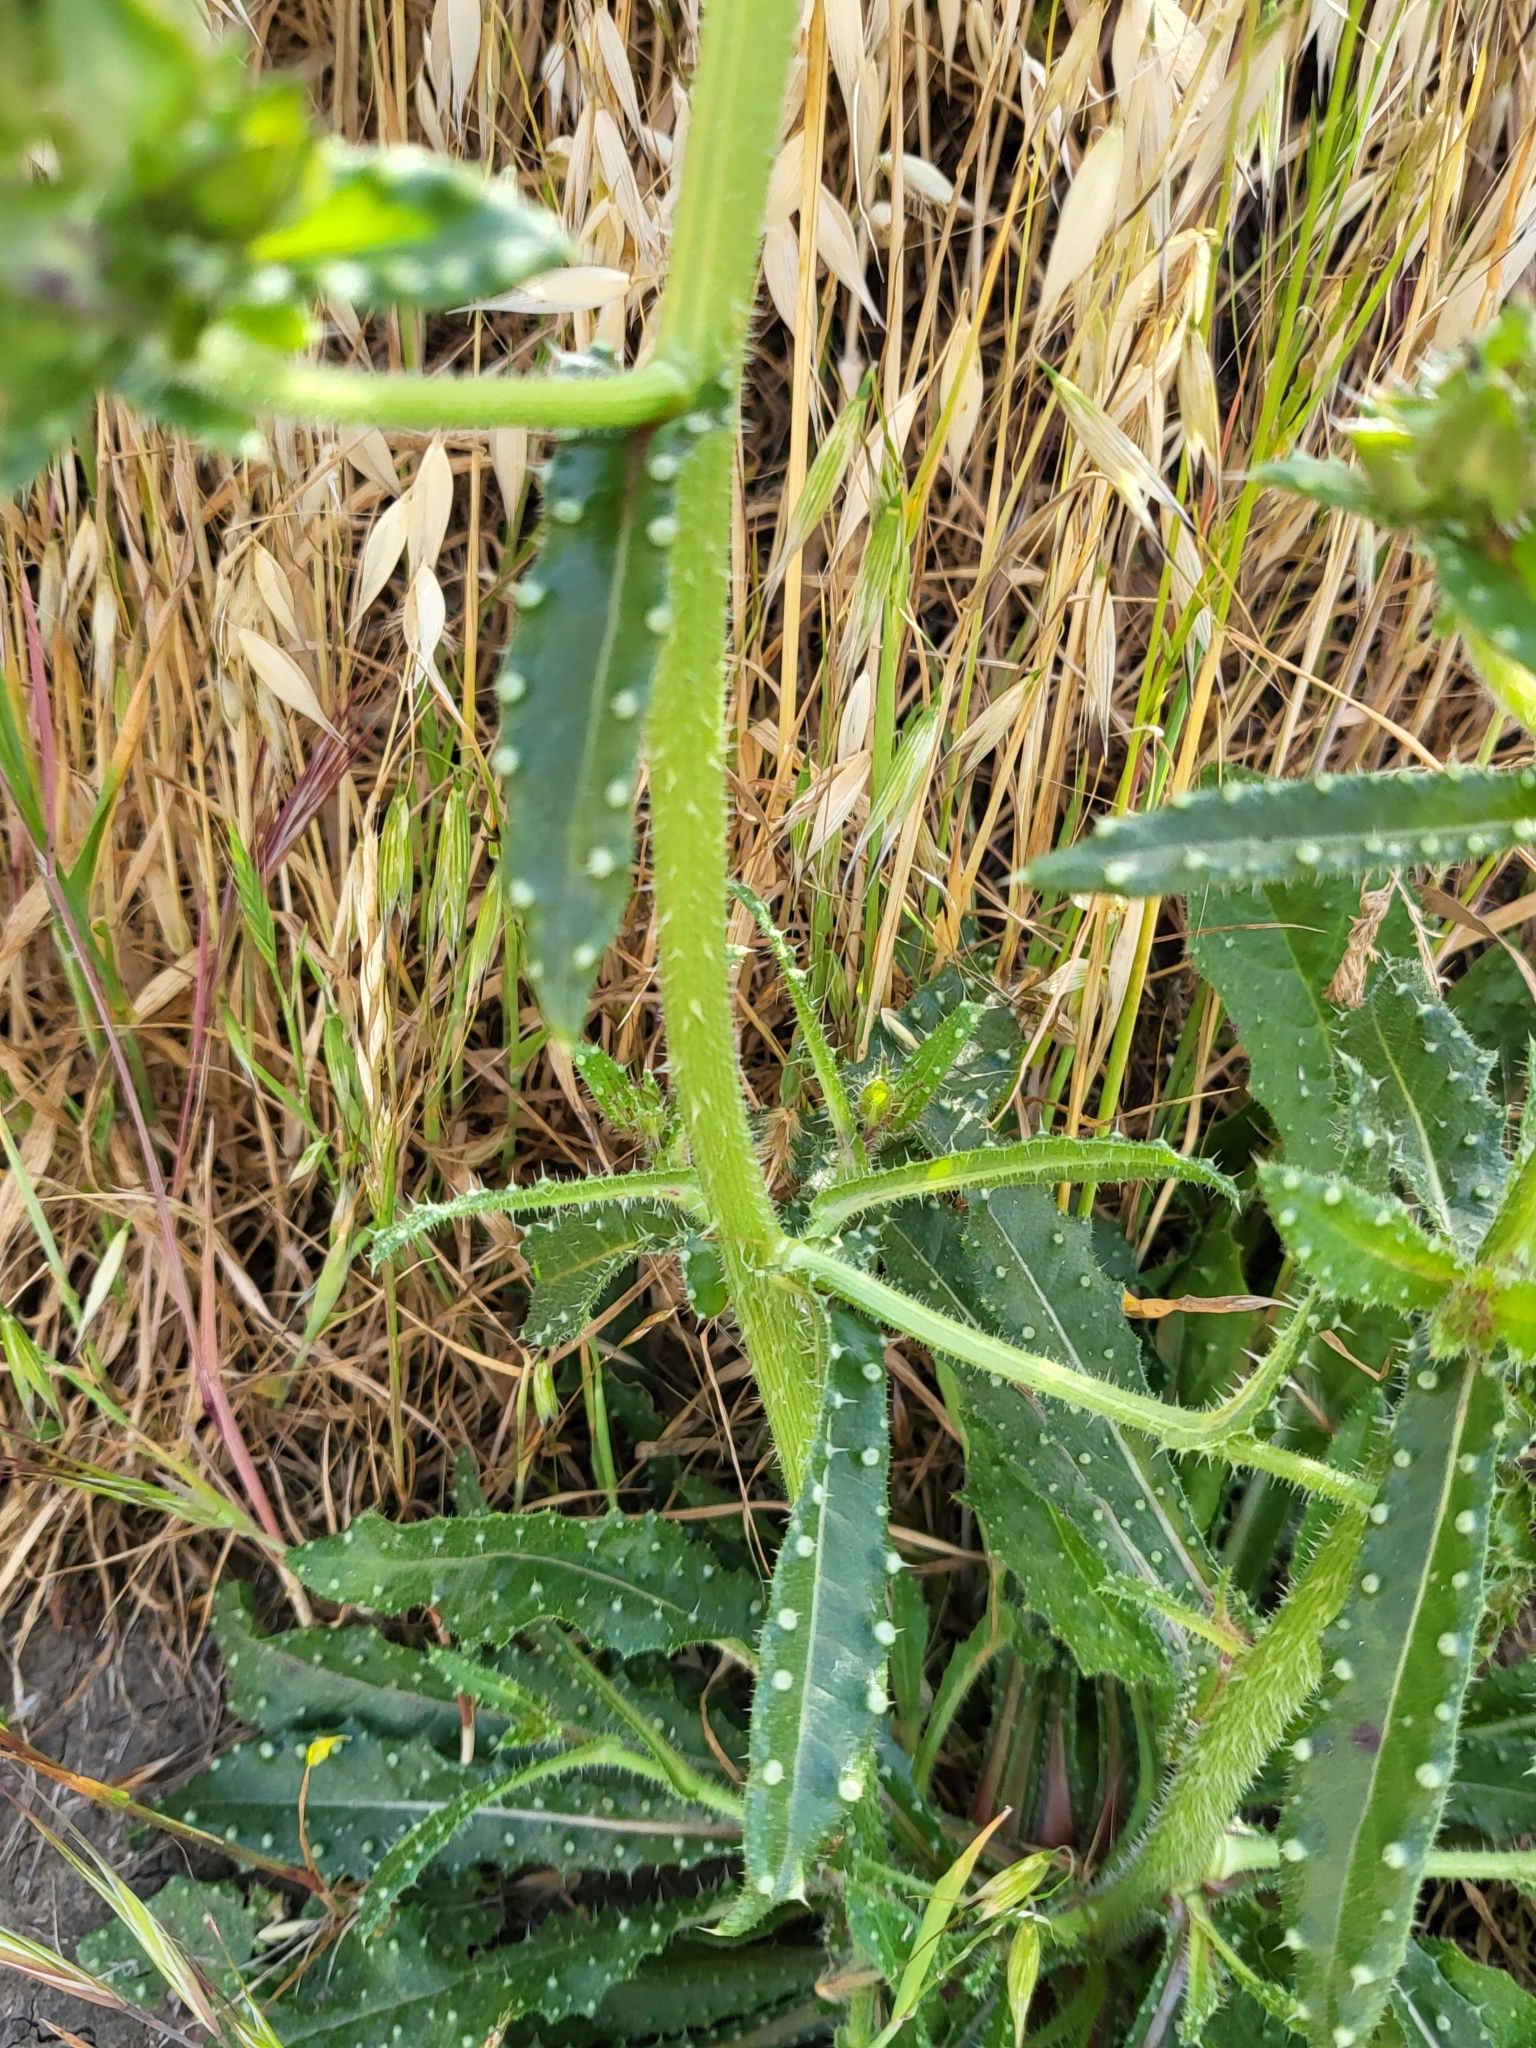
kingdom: Plantae
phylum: Tracheophyta
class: Magnoliopsida
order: Asterales
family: Asteraceae
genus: Helminthotheca
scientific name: Helminthotheca echioides
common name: Ox-tongue
